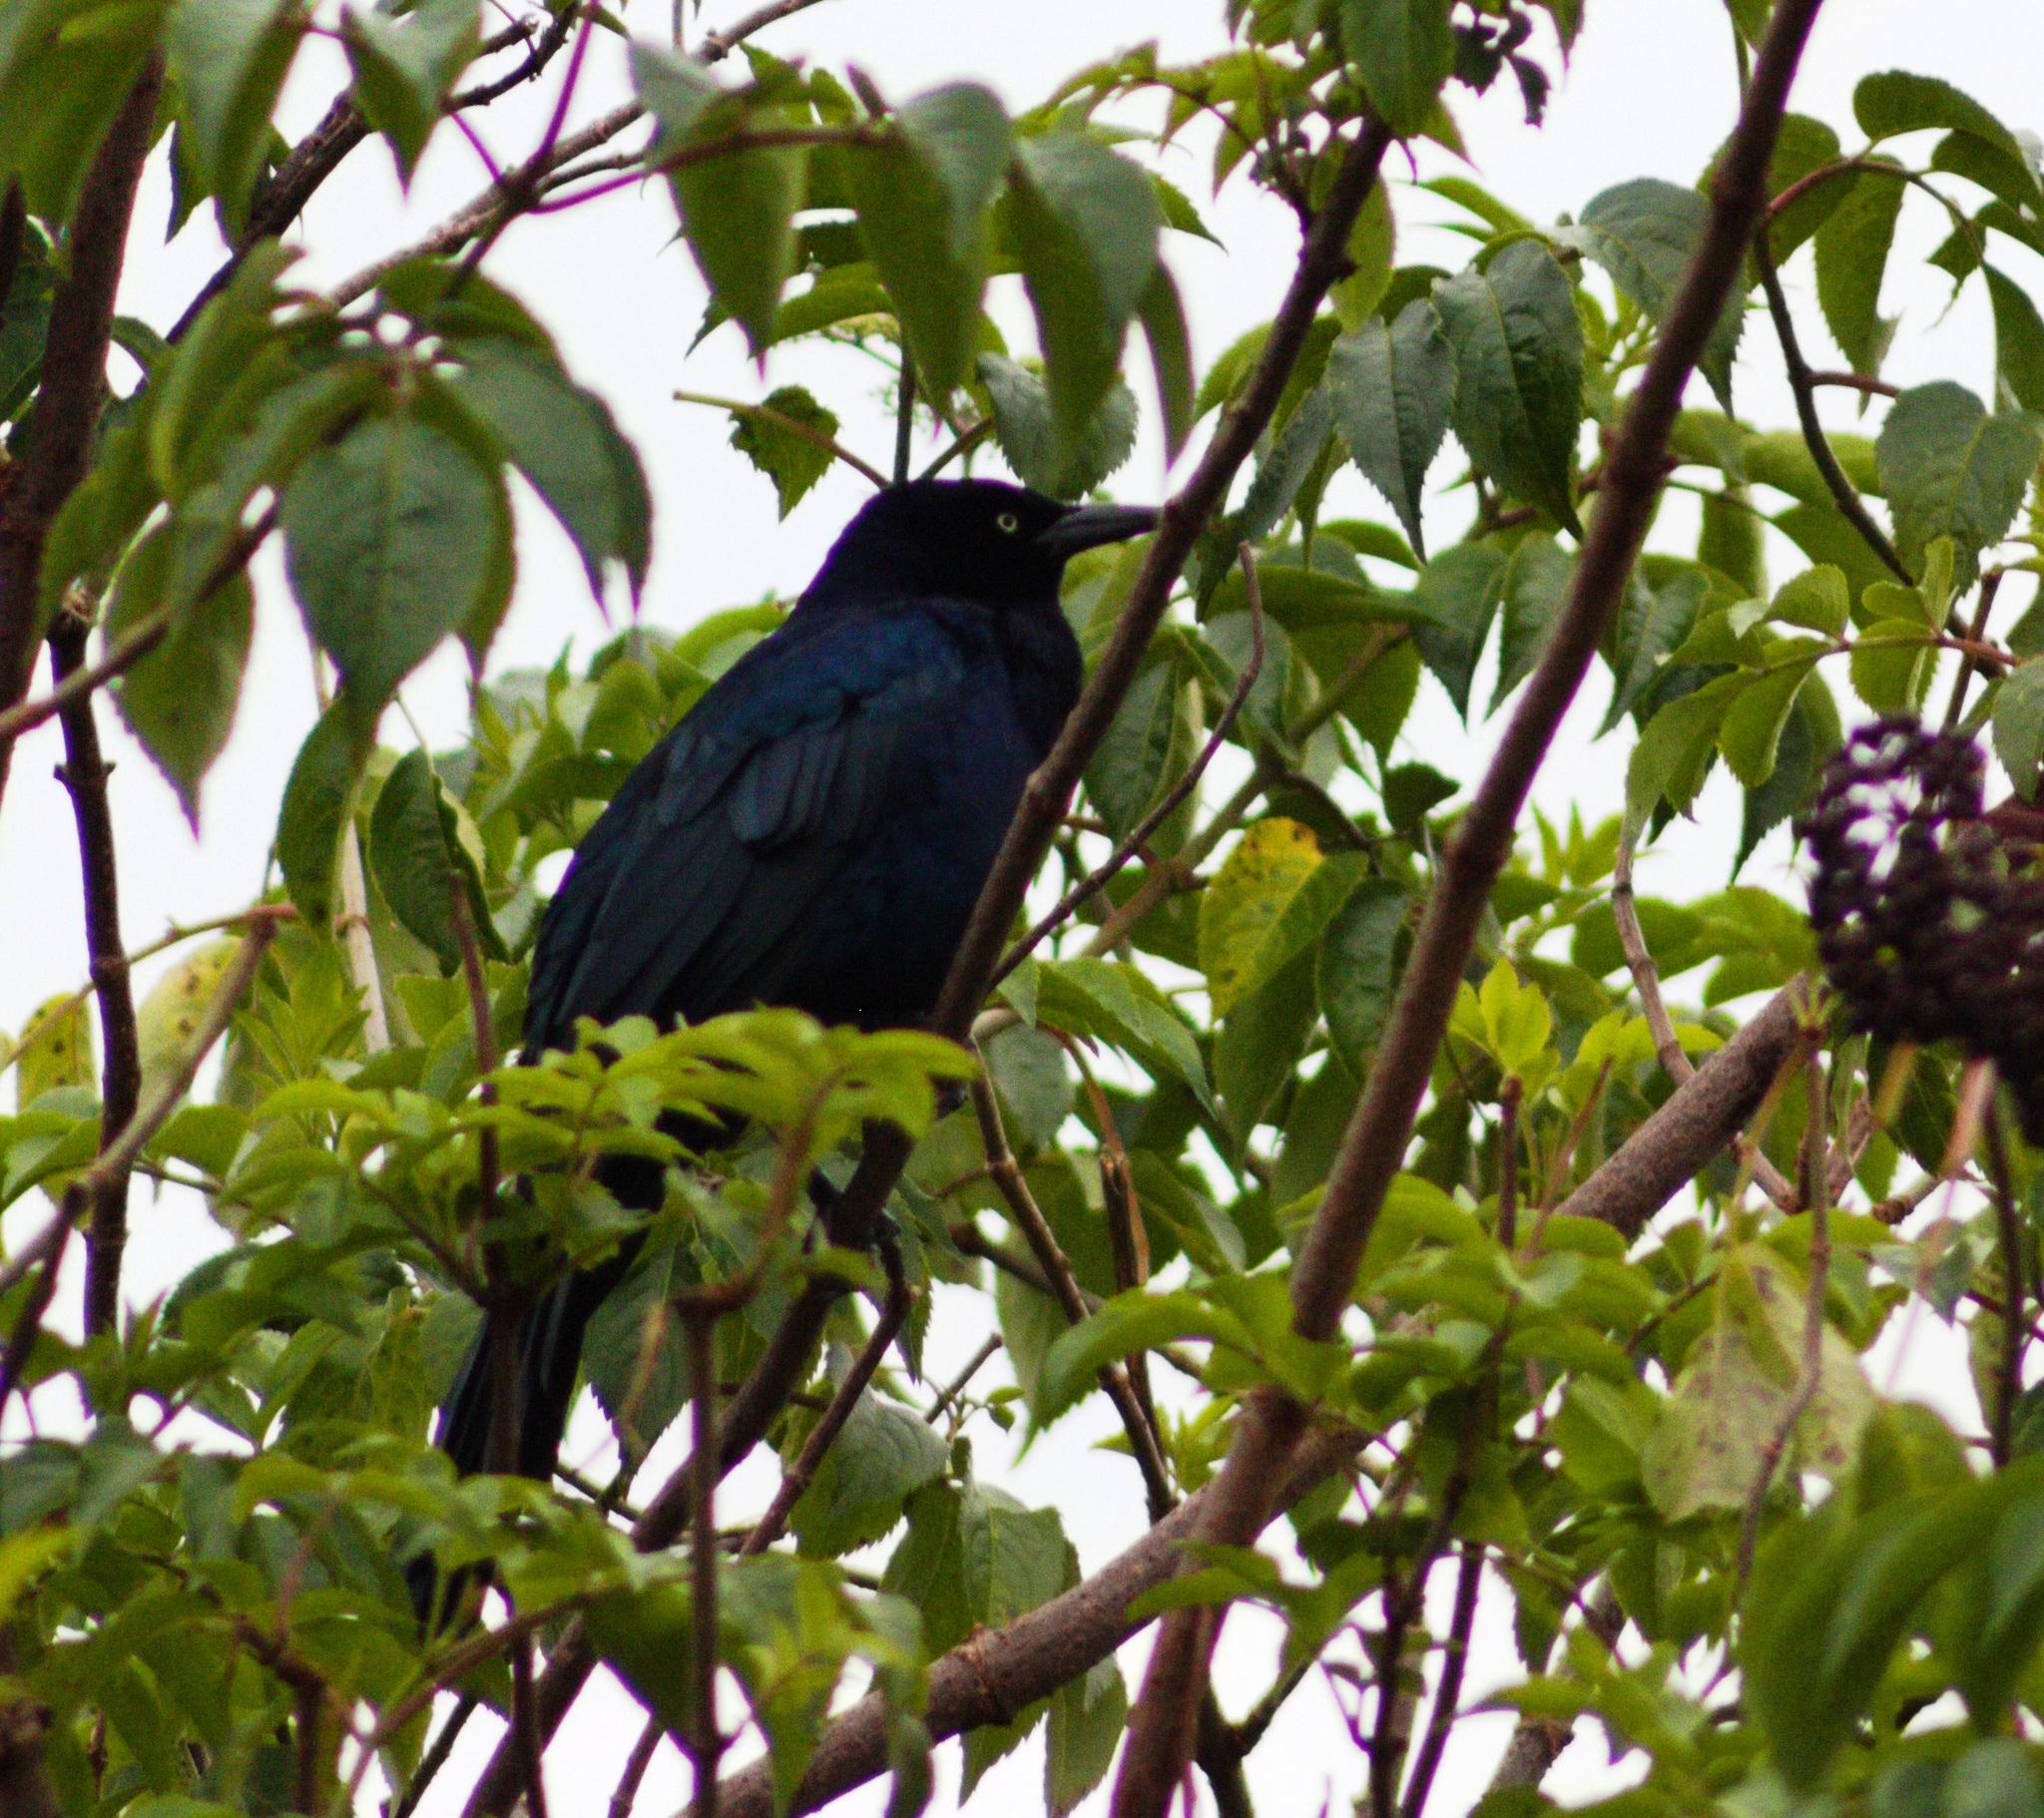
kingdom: Animalia
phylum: Chordata
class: Aves
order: Passeriformes
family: Icteridae
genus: Quiscalus
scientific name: Quiscalus mexicanus
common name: Great-tailed grackle
